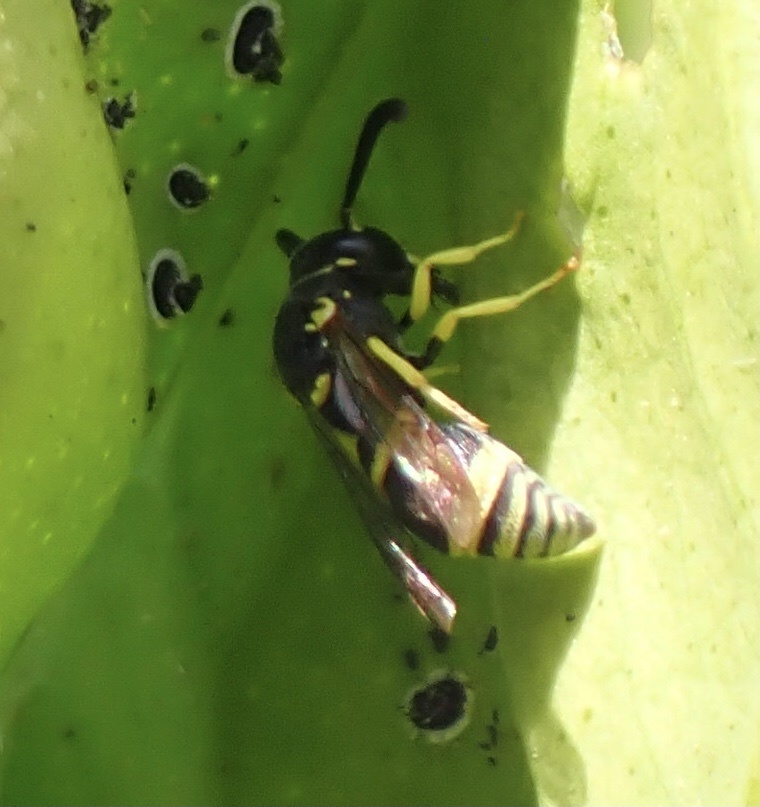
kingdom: Animalia
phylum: Arthropoda
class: Insecta
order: Hymenoptera
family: Eumenidae
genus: Tachyancistrocerus
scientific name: Tachyancistrocerus rhodensis
